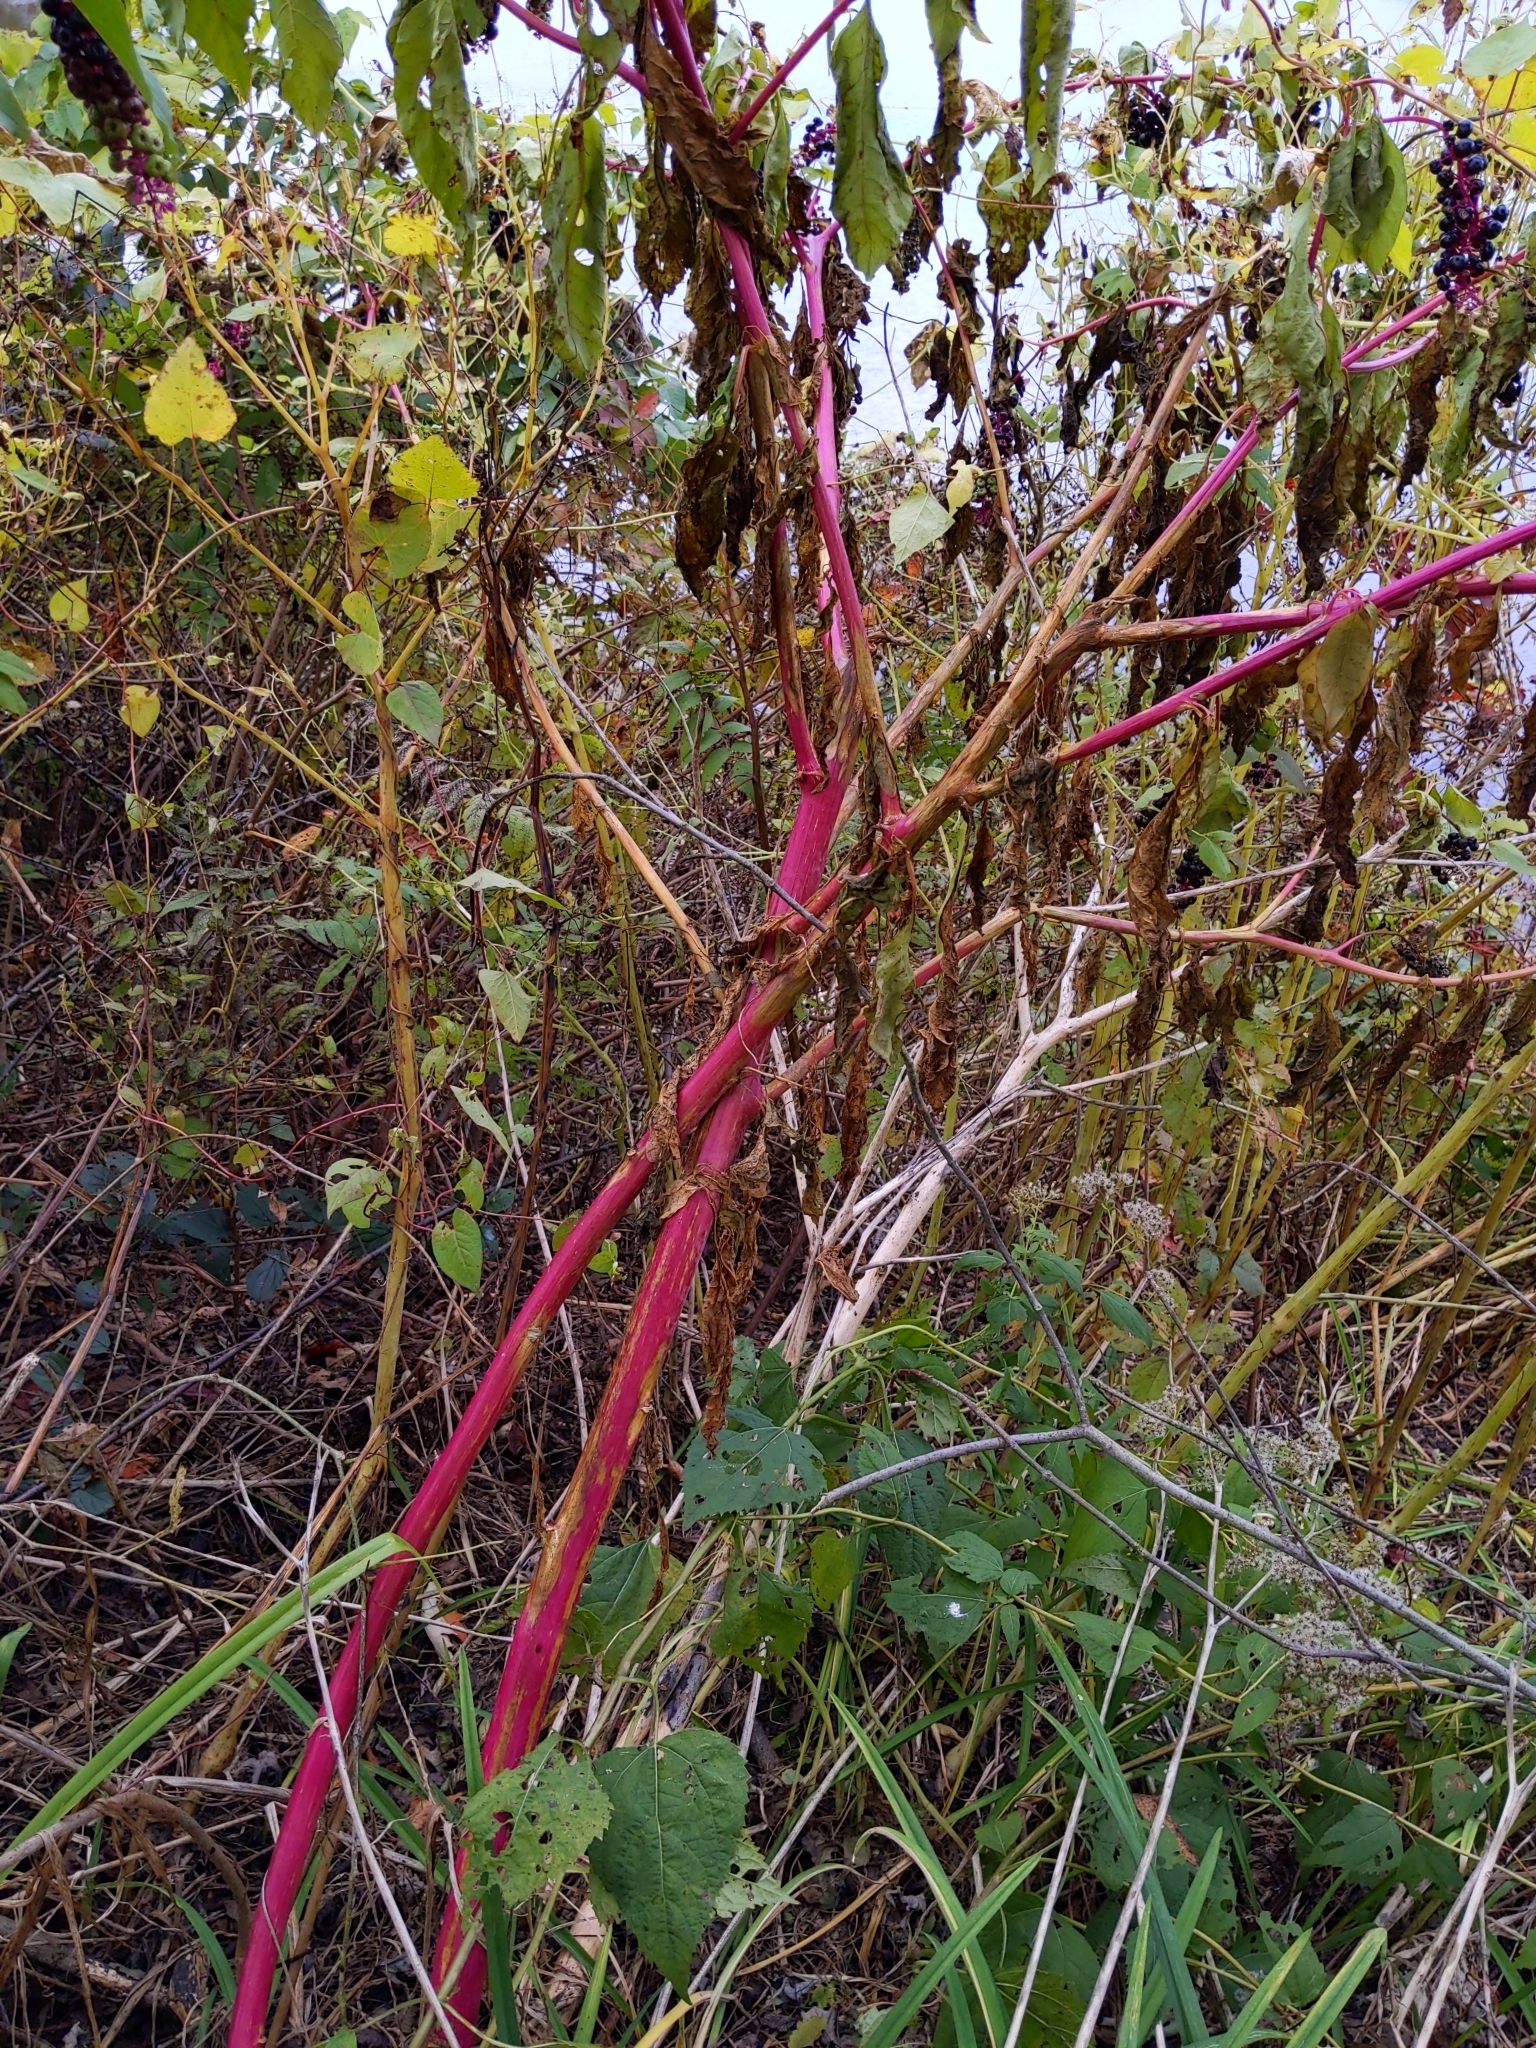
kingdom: Plantae
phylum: Tracheophyta
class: Magnoliopsida
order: Caryophyllales
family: Phytolaccaceae
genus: Phytolacca
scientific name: Phytolacca americana
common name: American pokeweed
